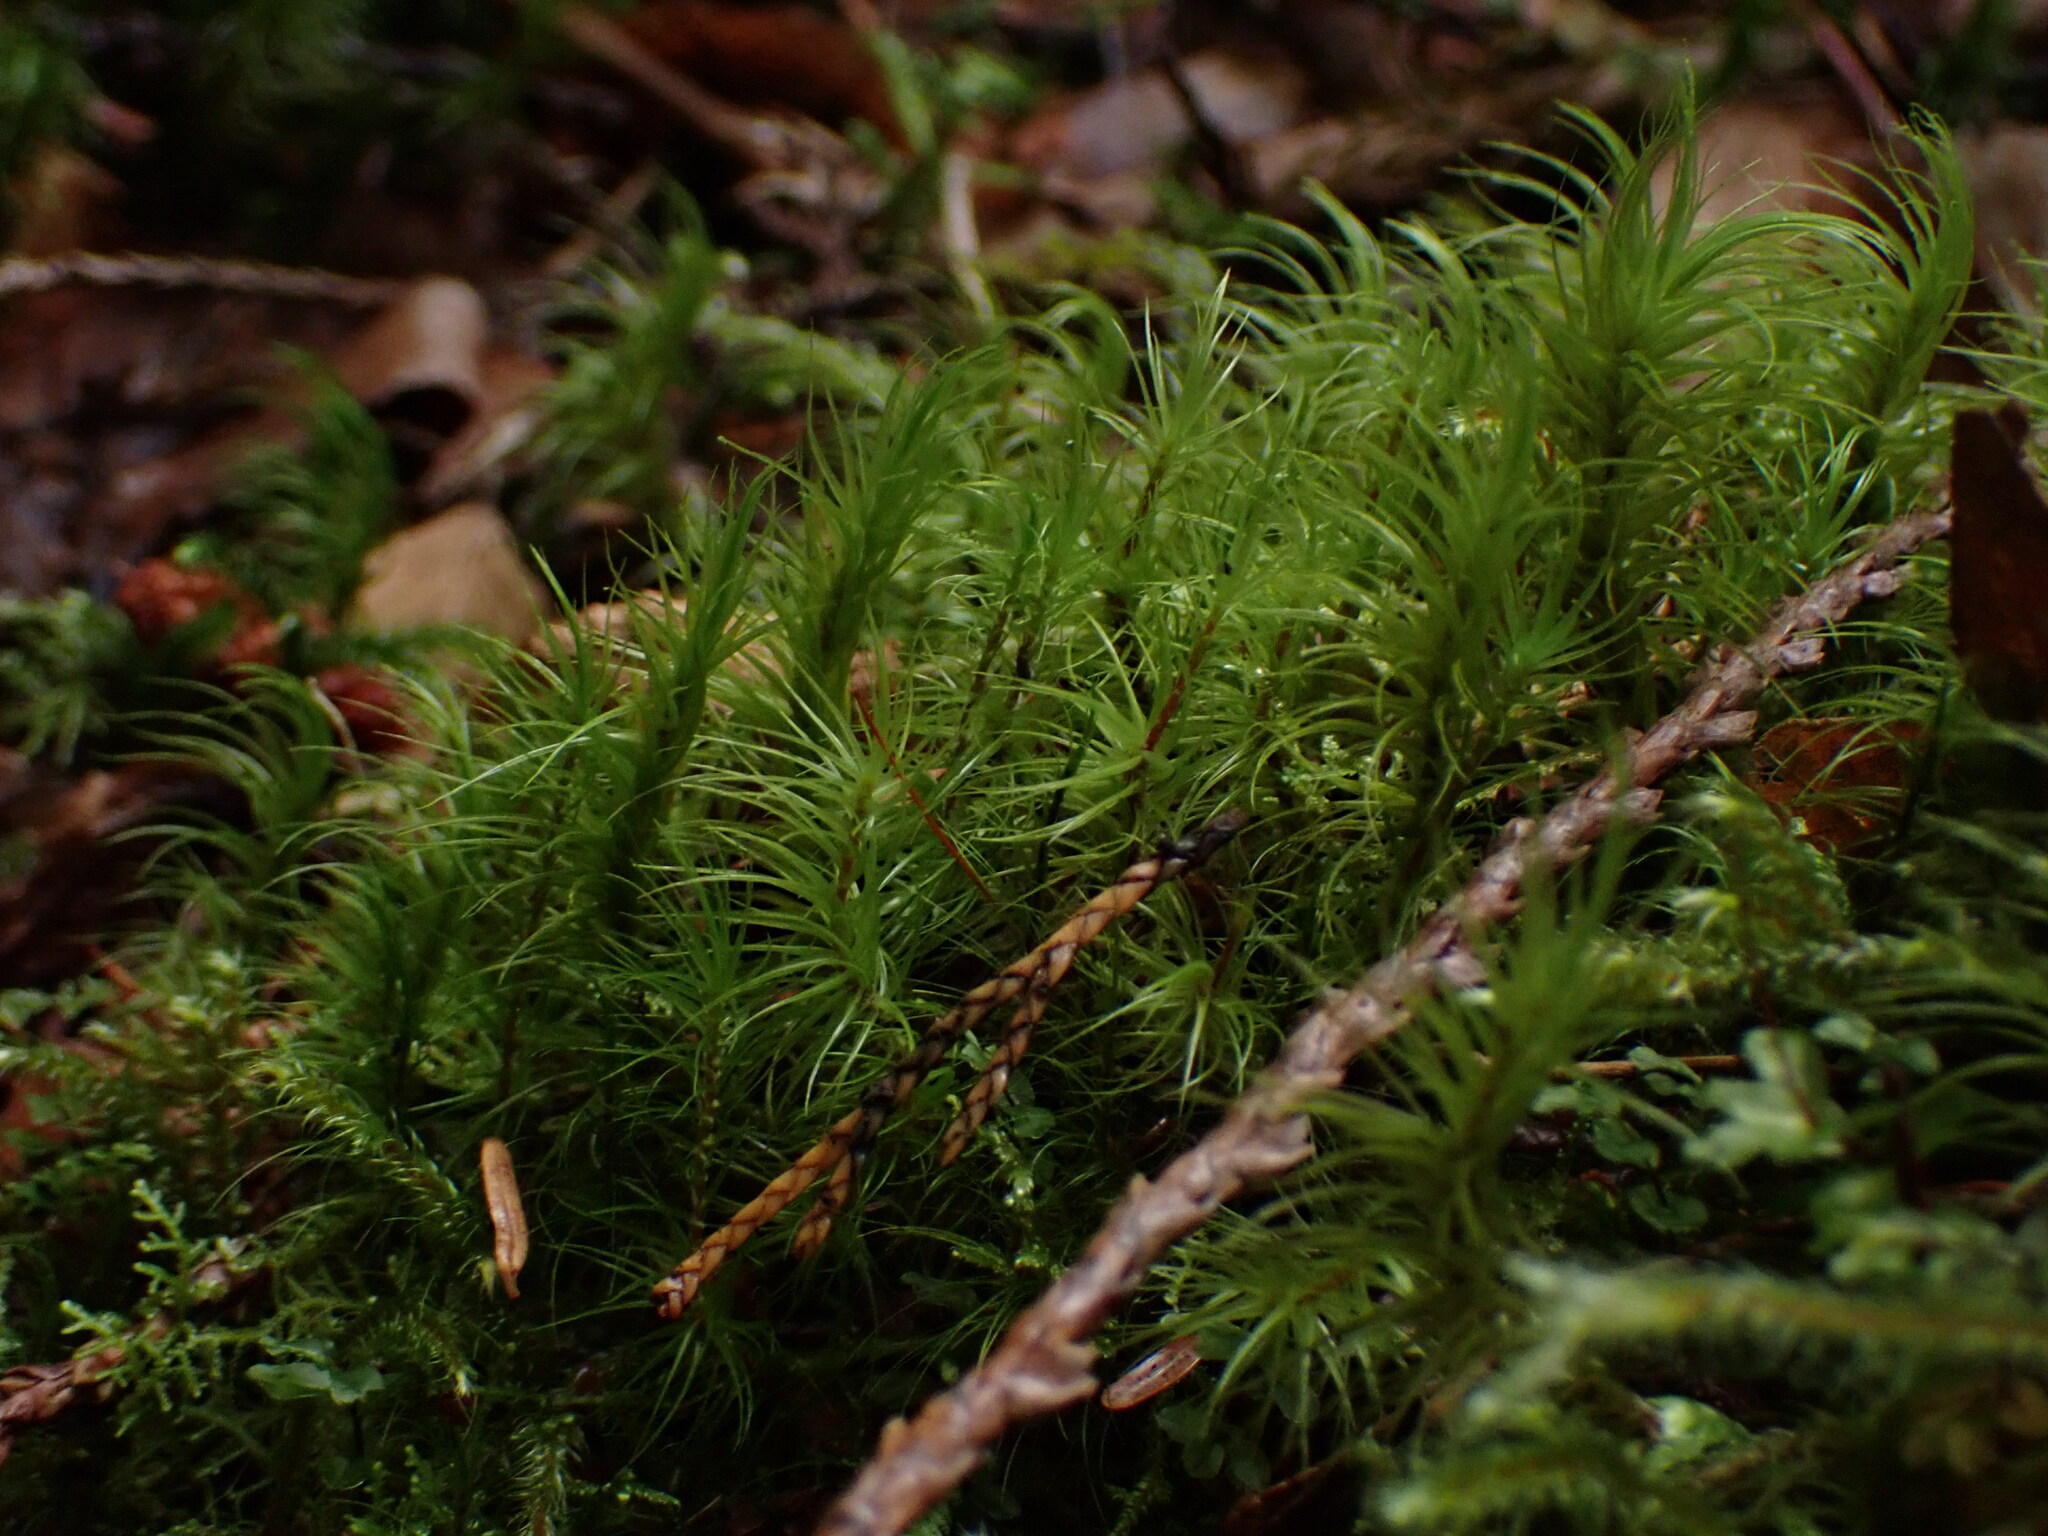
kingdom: Plantae
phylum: Bryophyta
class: Bryopsida
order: Dicranales
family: Dicranaceae
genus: Dicranum
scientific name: Dicranum majus
